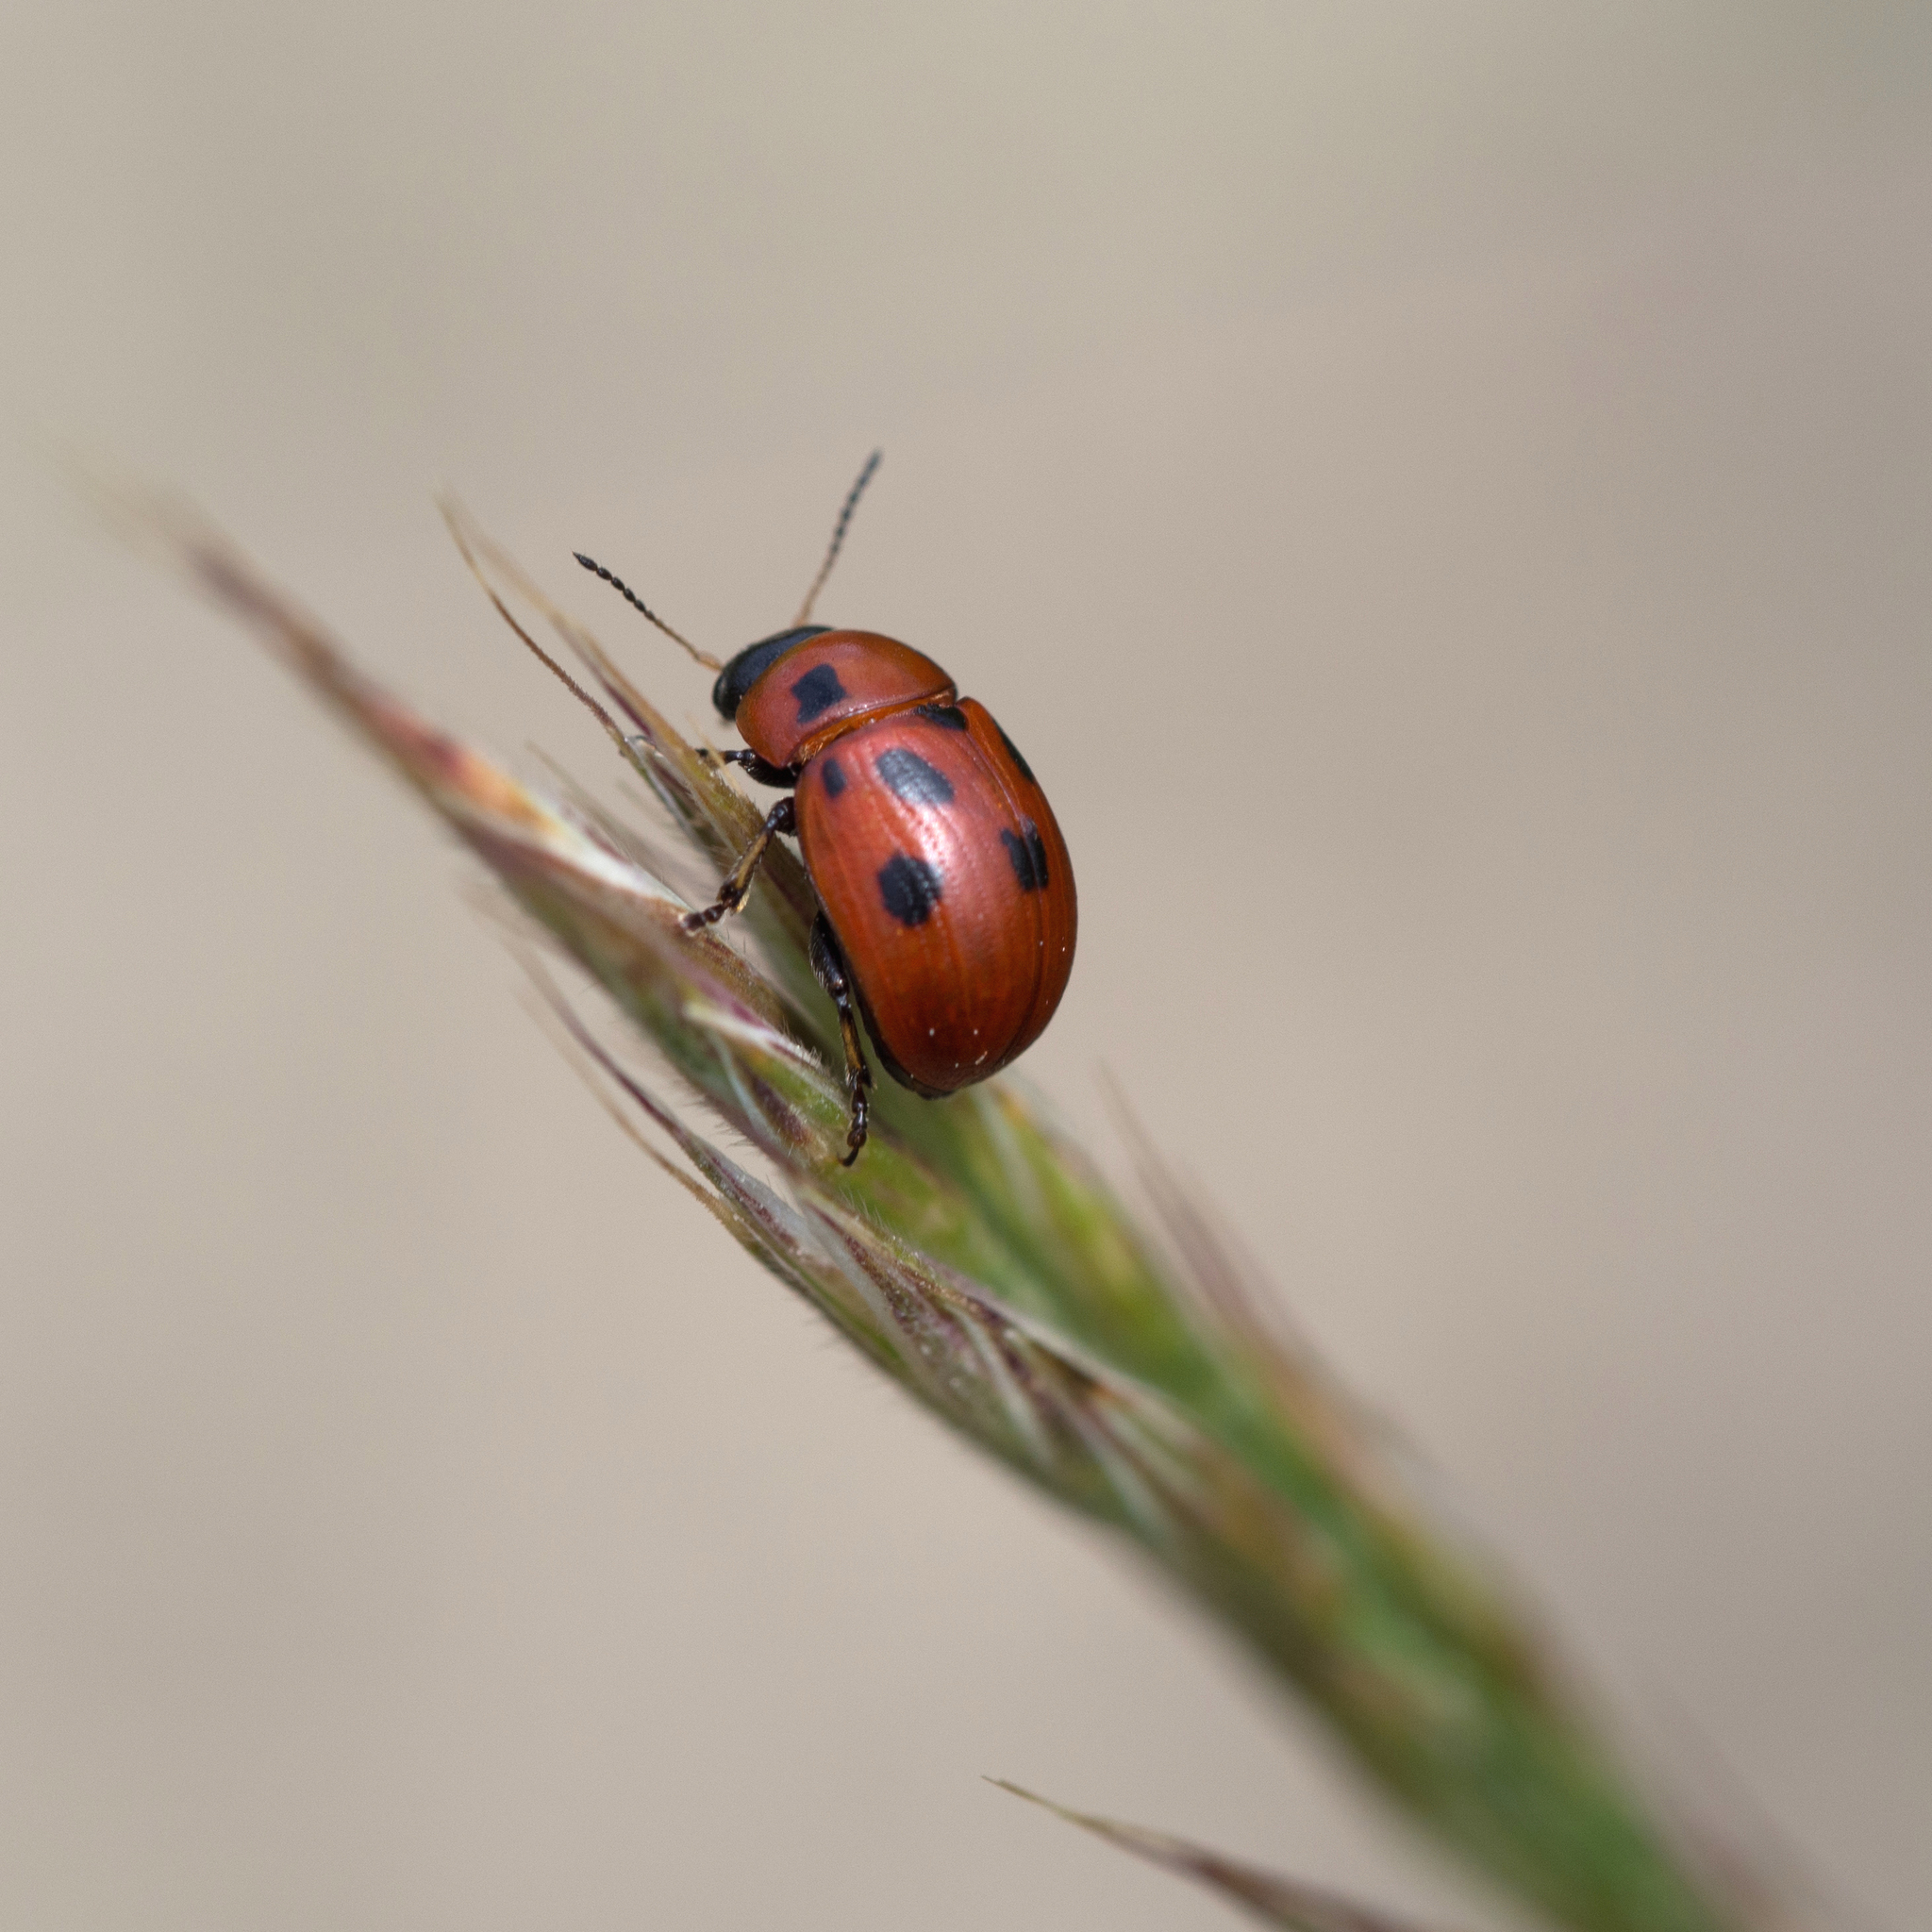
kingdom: Animalia
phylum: Arthropoda
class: Insecta
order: Coleoptera
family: Chrysomelidae
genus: Gonioctena
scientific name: Gonioctena fornicata
